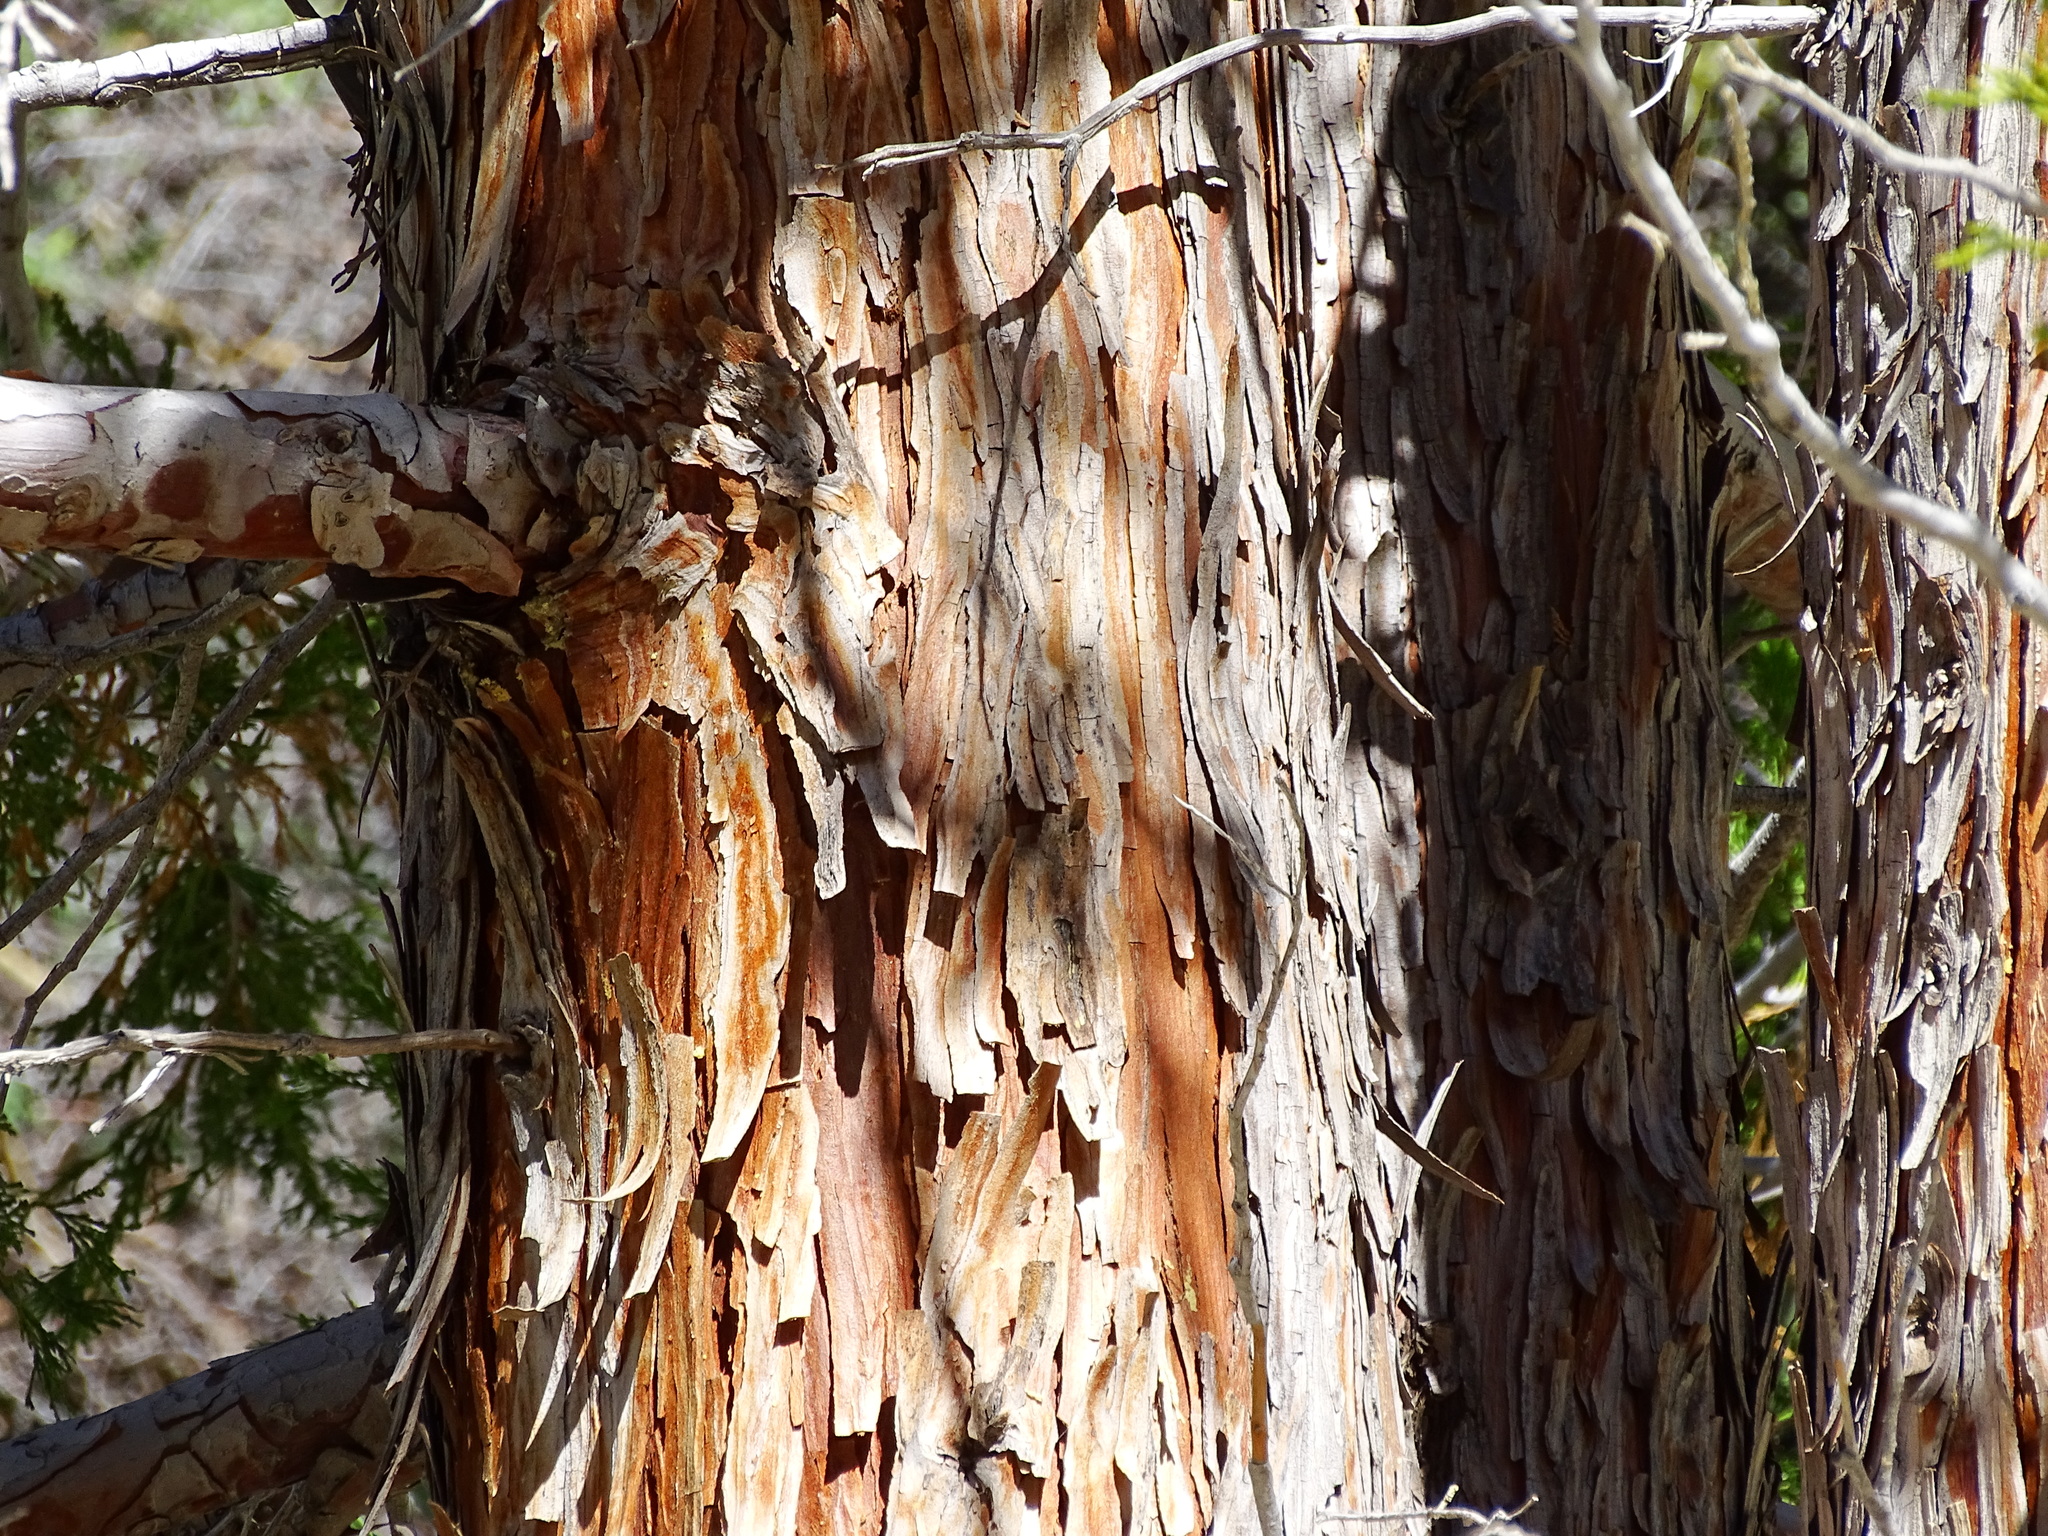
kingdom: Plantae
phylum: Tracheophyta
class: Pinopsida
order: Pinales
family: Cupressaceae
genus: Calocedrus
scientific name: Calocedrus decurrens
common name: Californian incense-cedar
